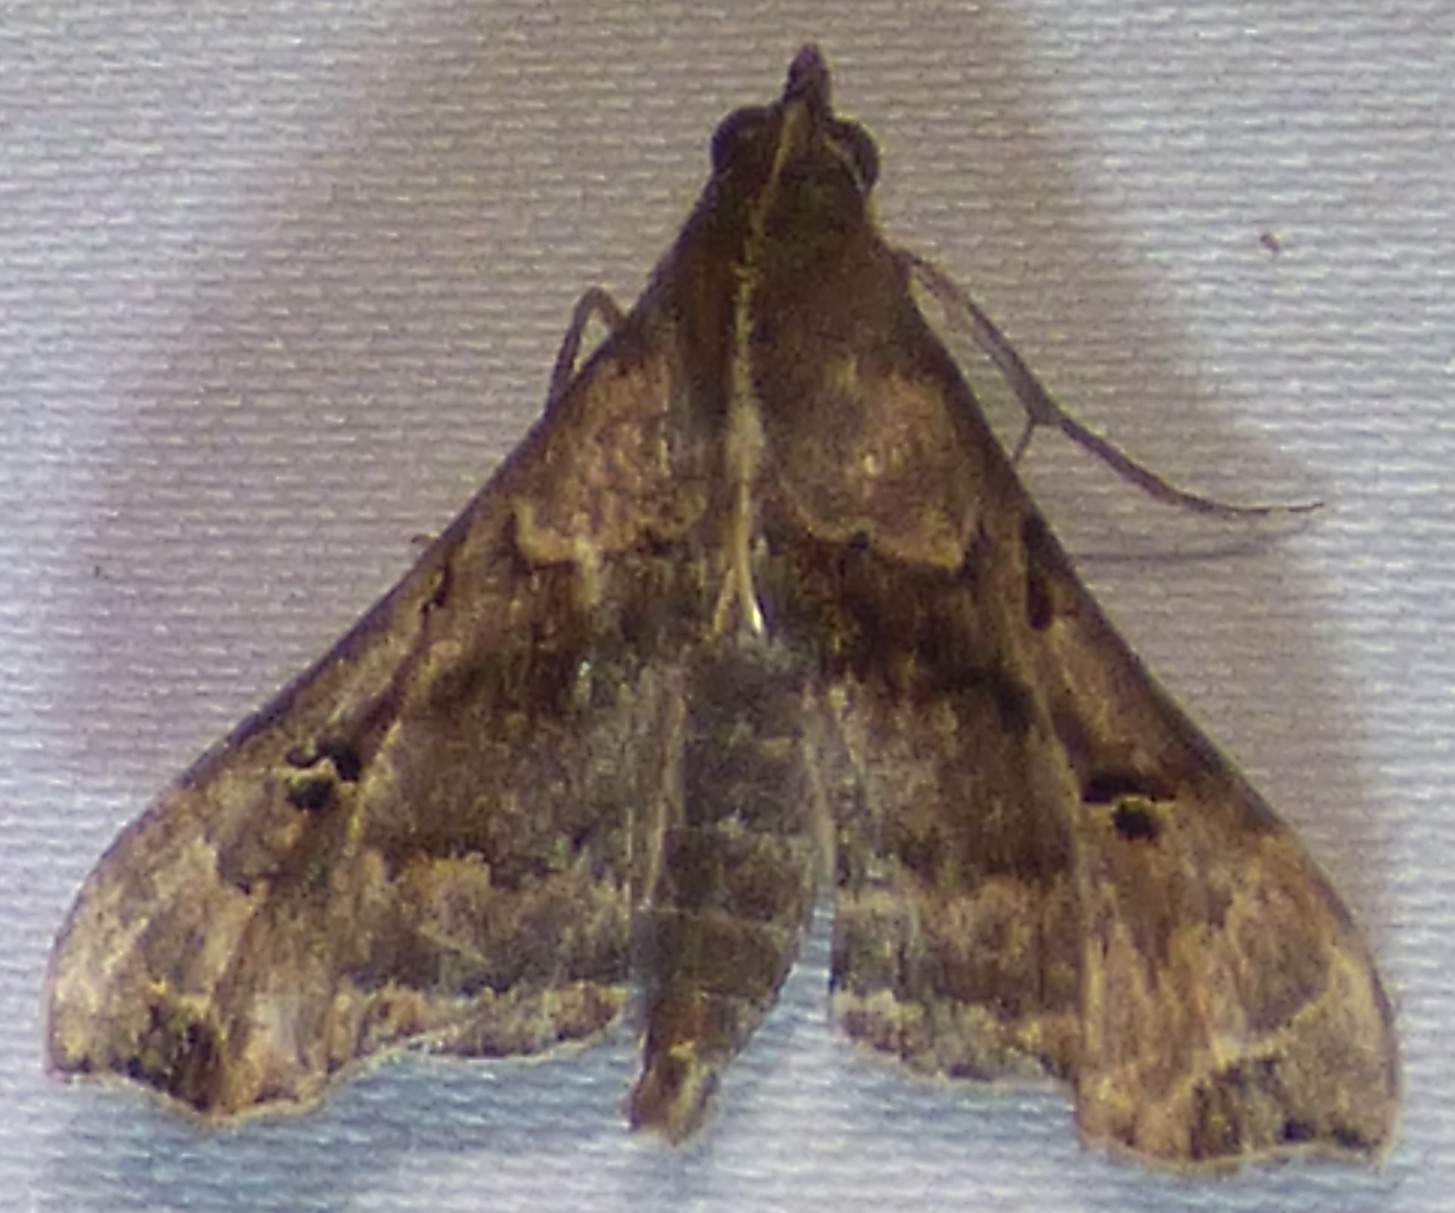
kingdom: Animalia
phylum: Arthropoda
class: Insecta
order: Lepidoptera
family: Erebidae
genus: Palthis
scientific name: Palthis asopialis
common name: Faint-spotted palthis moth
